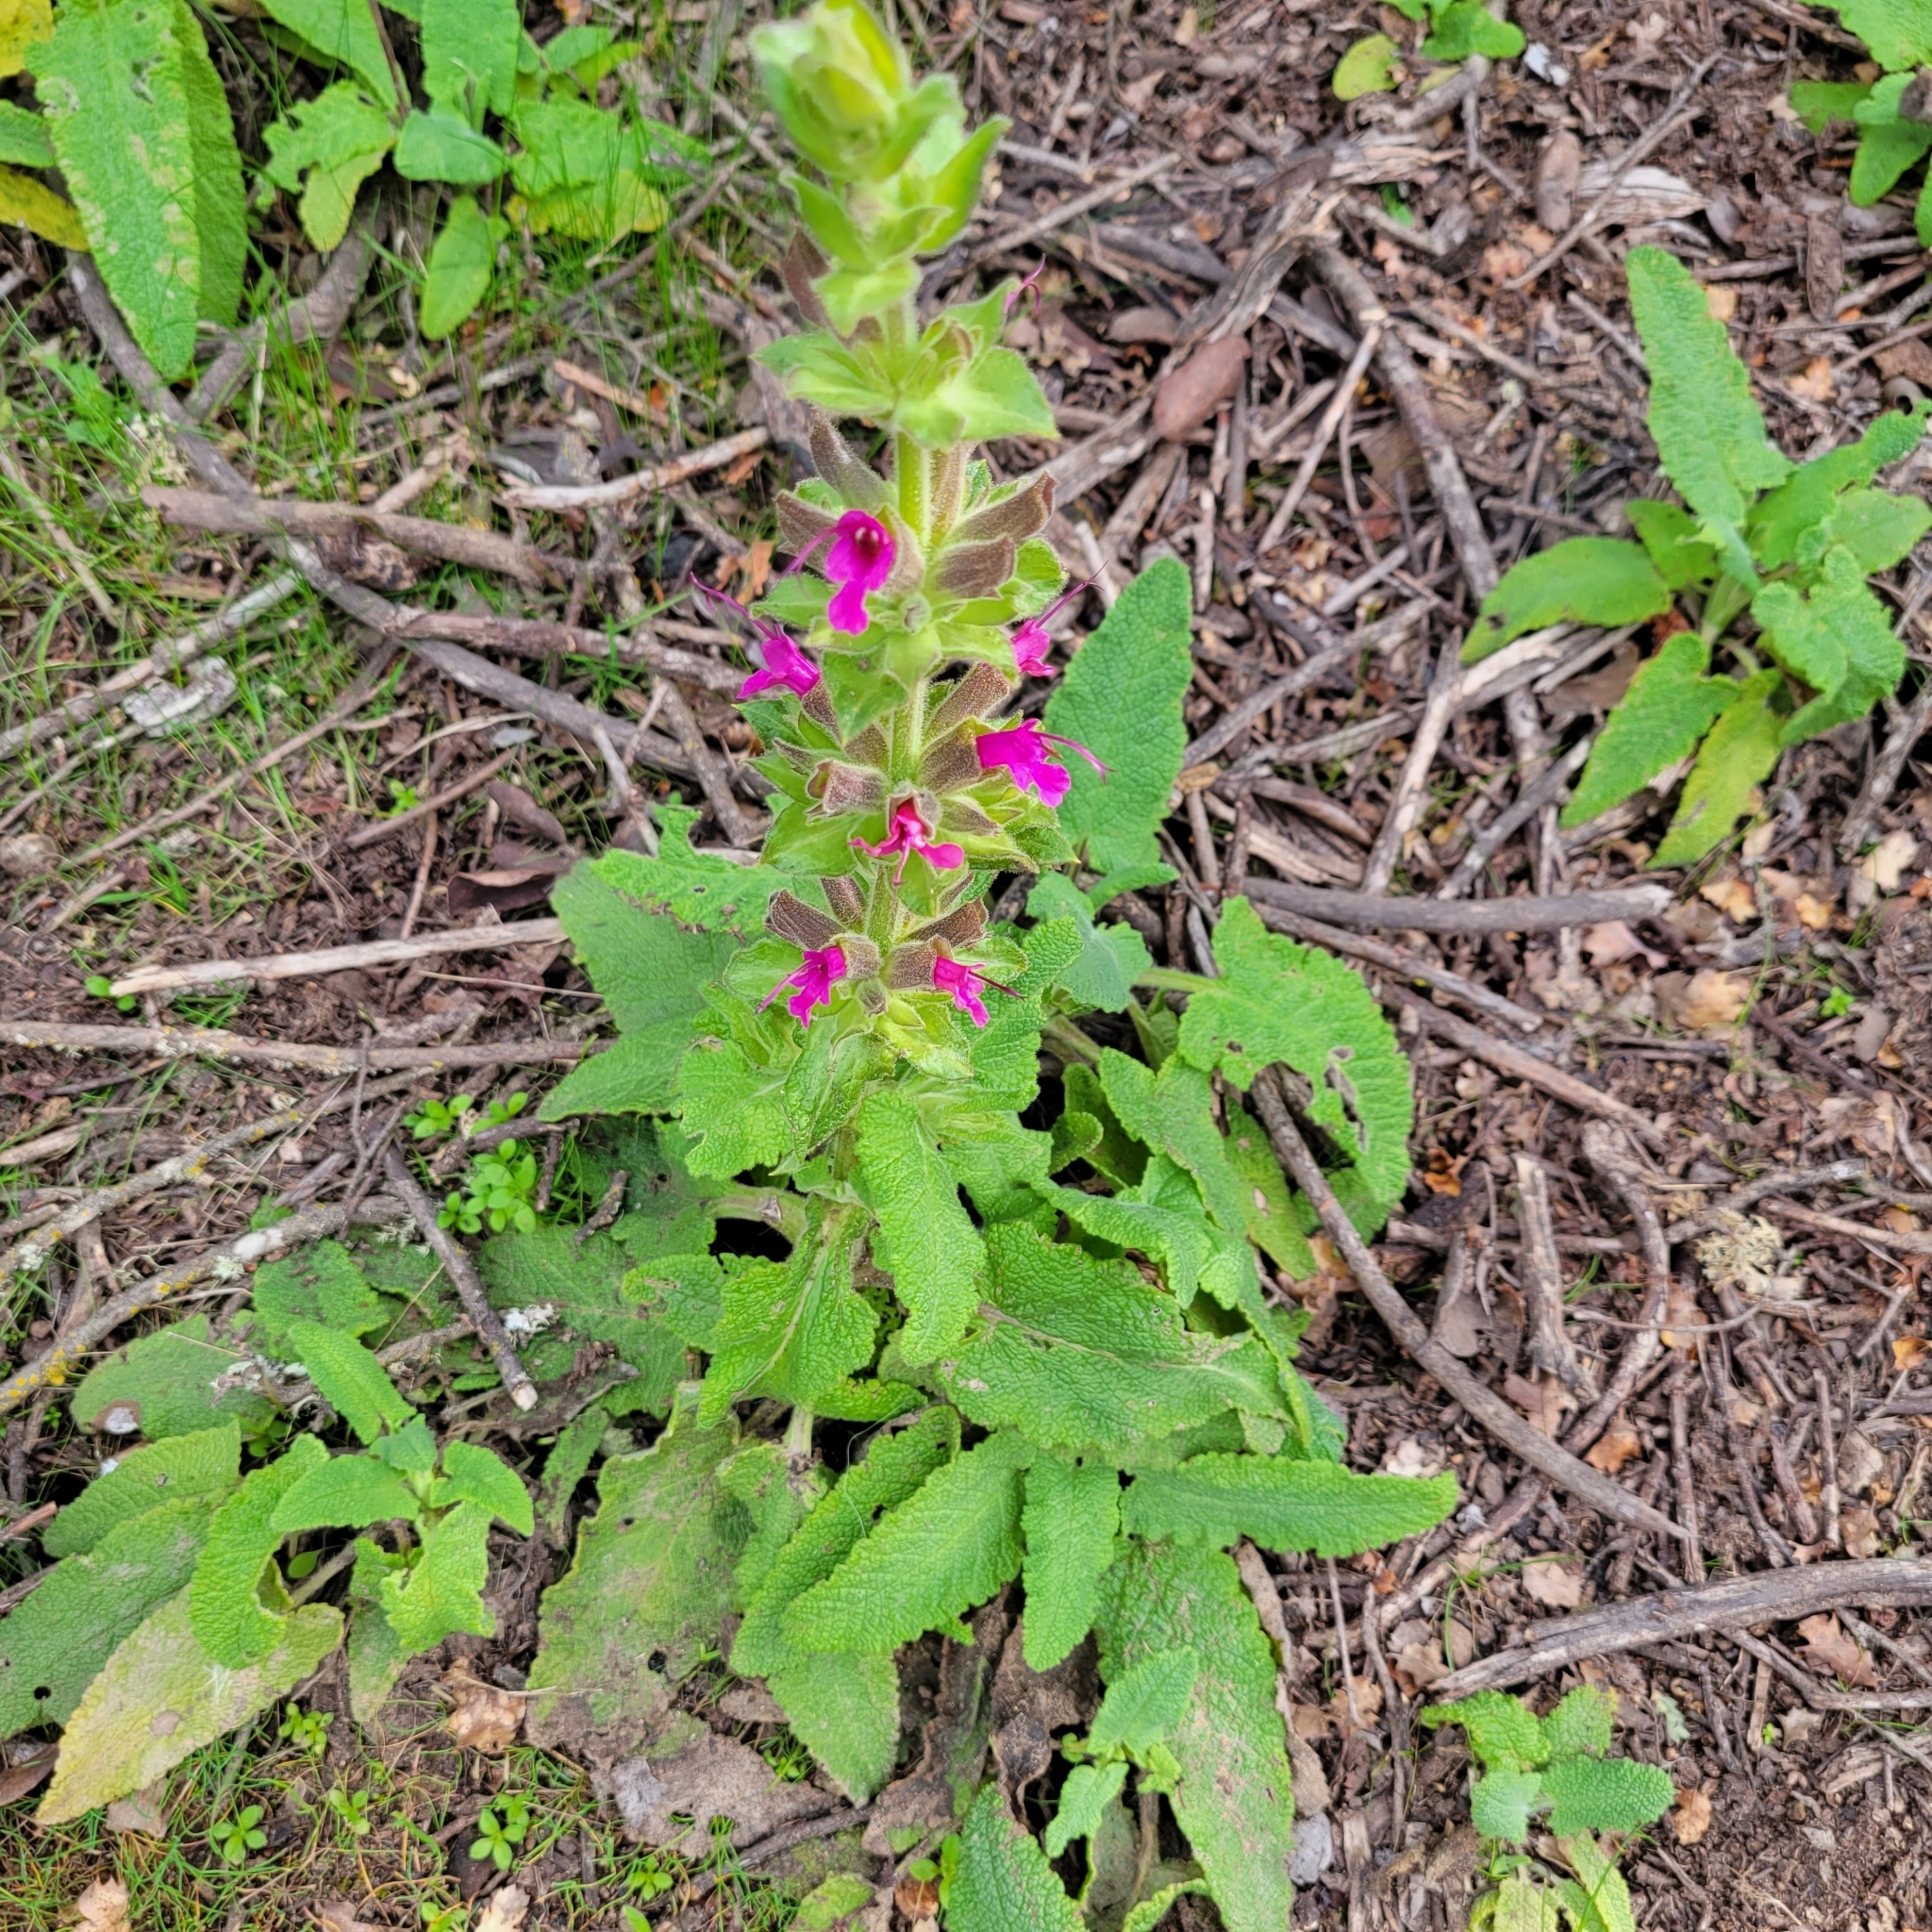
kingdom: Plantae
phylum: Tracheophyta
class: Magnoliopsida
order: Lamiales
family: Lamiaceae
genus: Salvia
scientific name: Salvia spathacea
